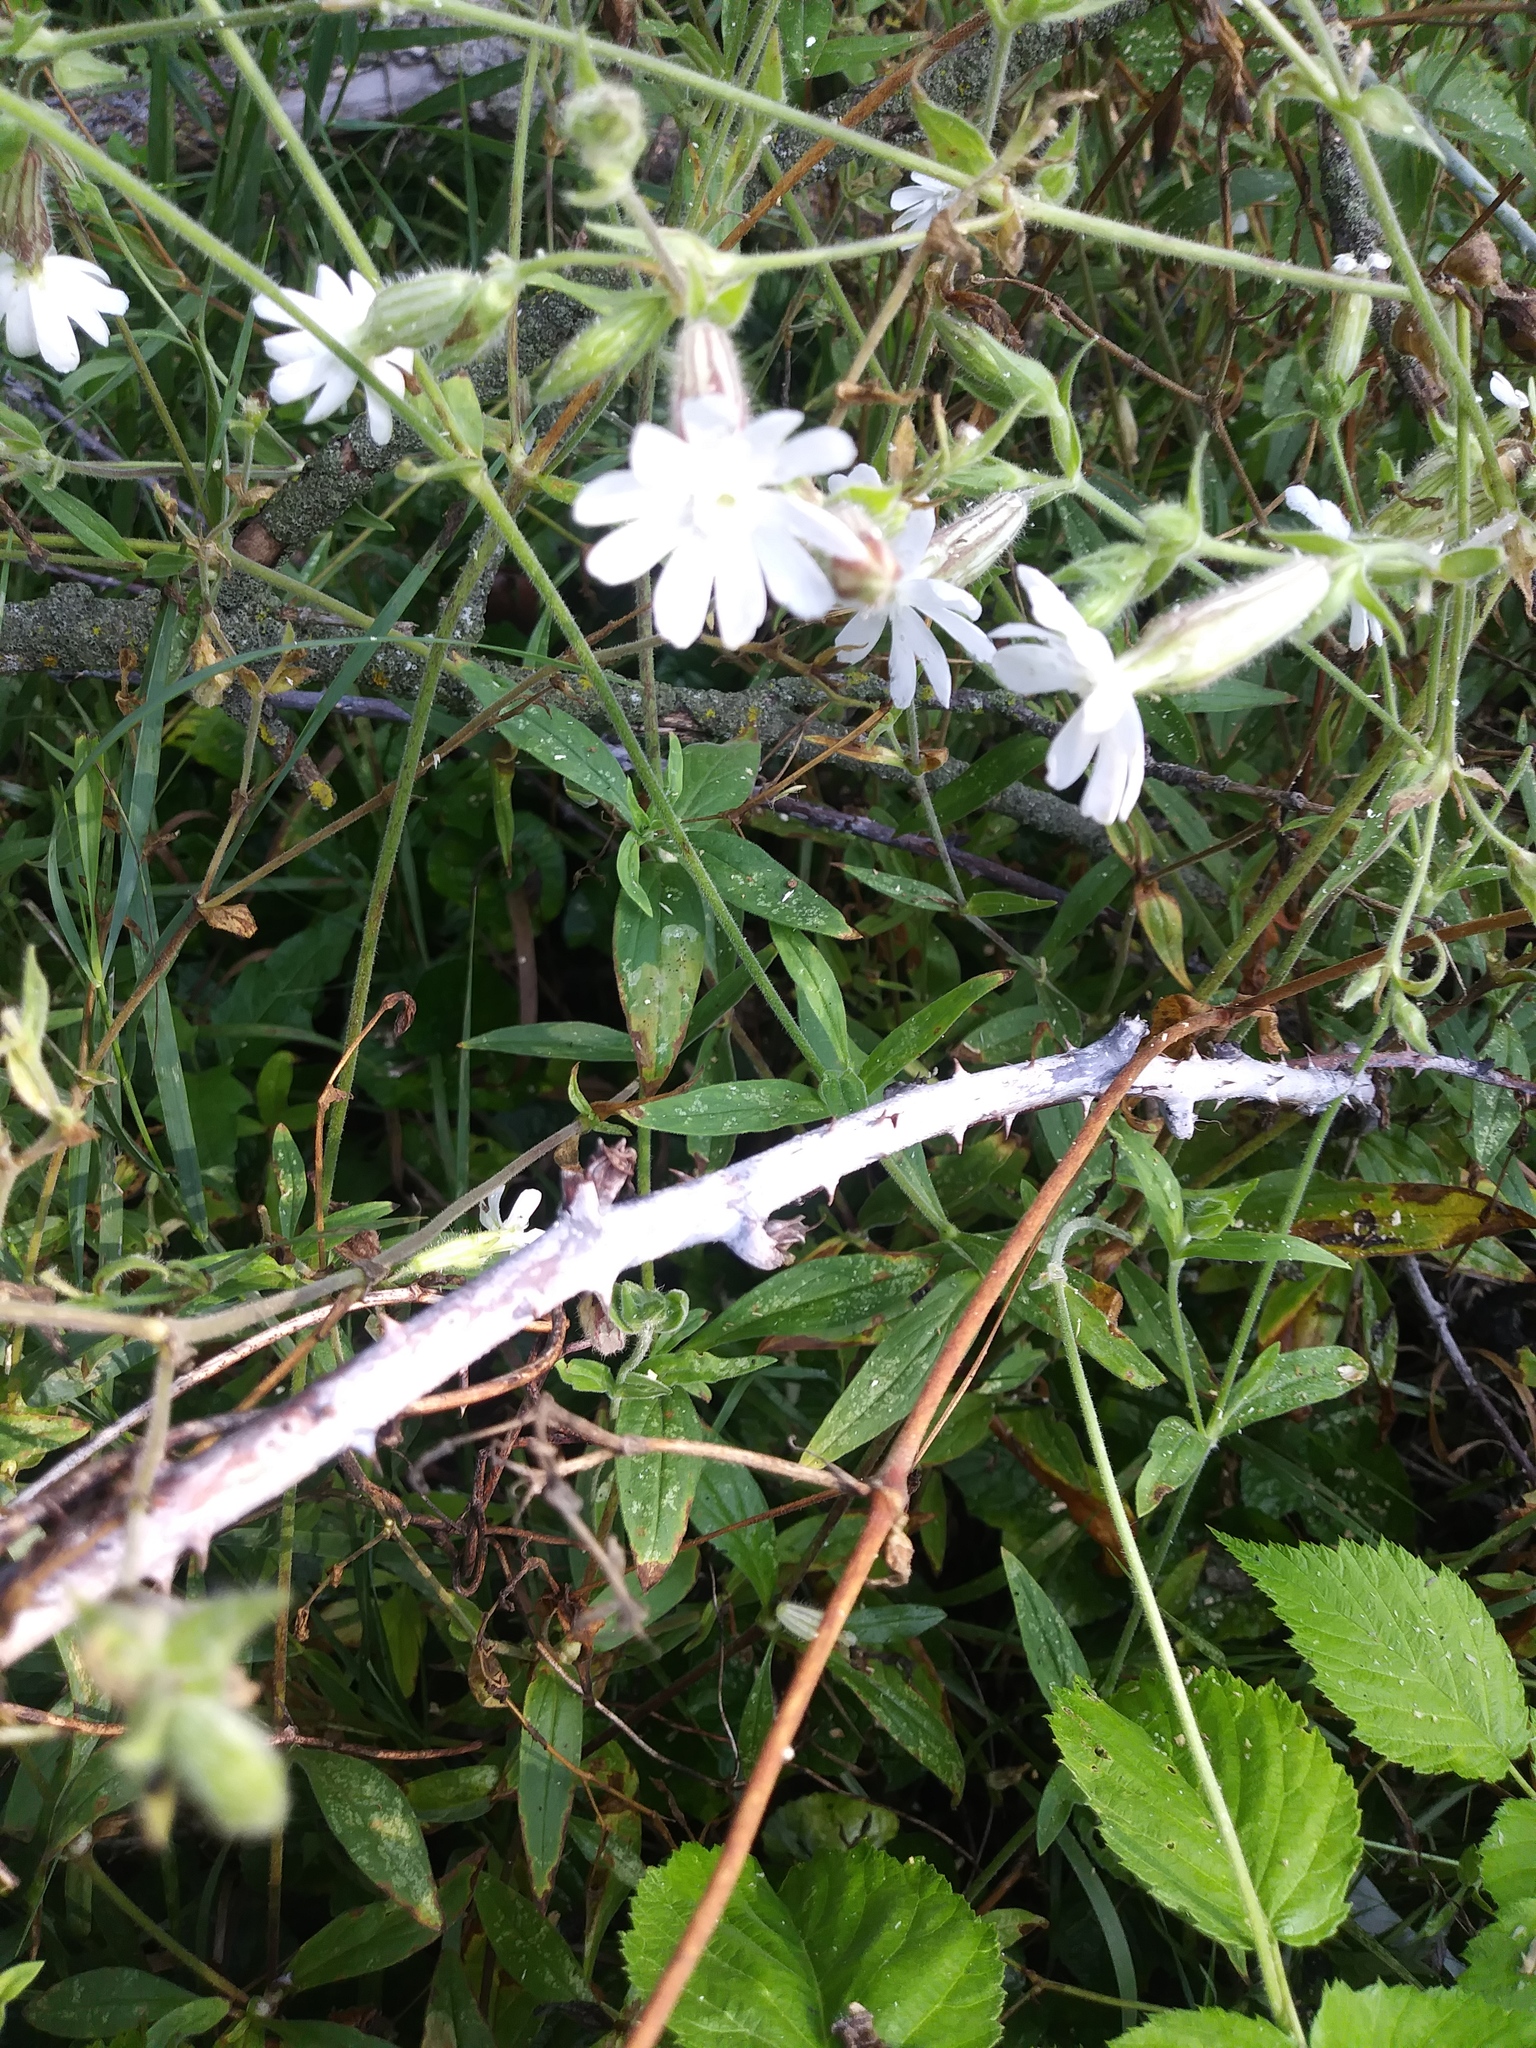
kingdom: Plantae
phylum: Tracheophyta
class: Magnoliopsida
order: Caryophyllales
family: Caryophyllaceae
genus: Silene
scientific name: Silene latifolia
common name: White campion
